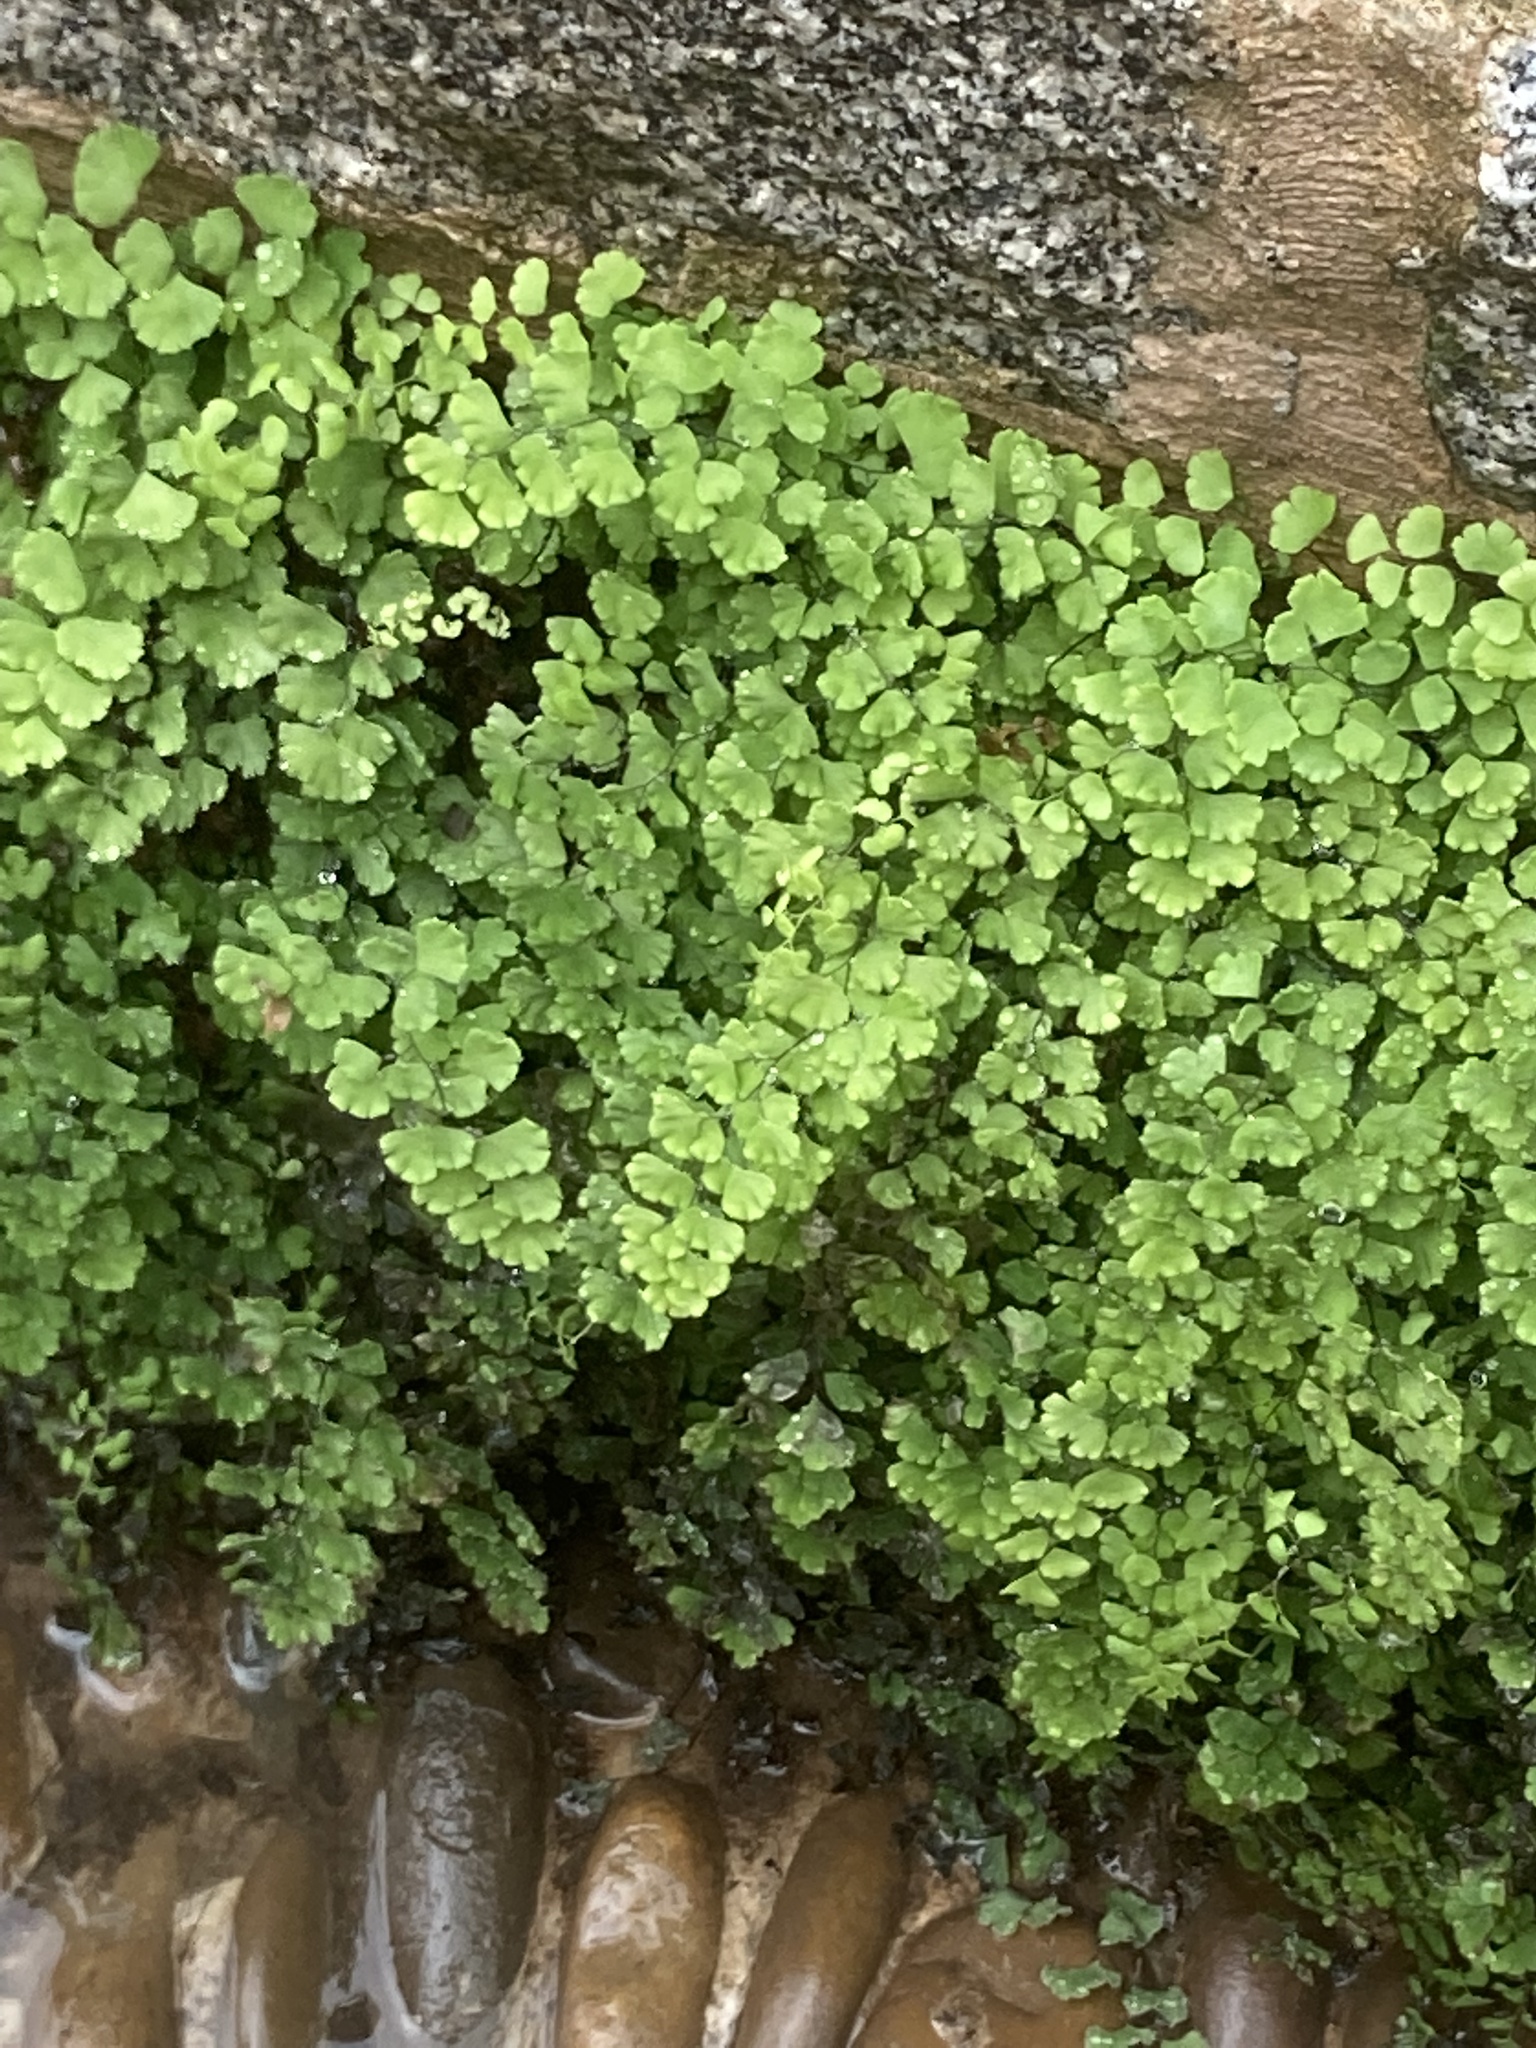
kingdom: Plantae
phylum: Tracheophyta
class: Polypodiopsida
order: Polypodiales
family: Pteridaceae
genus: Adiantum
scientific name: Adiantum capillus-veneris
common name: Maidenhair fern
